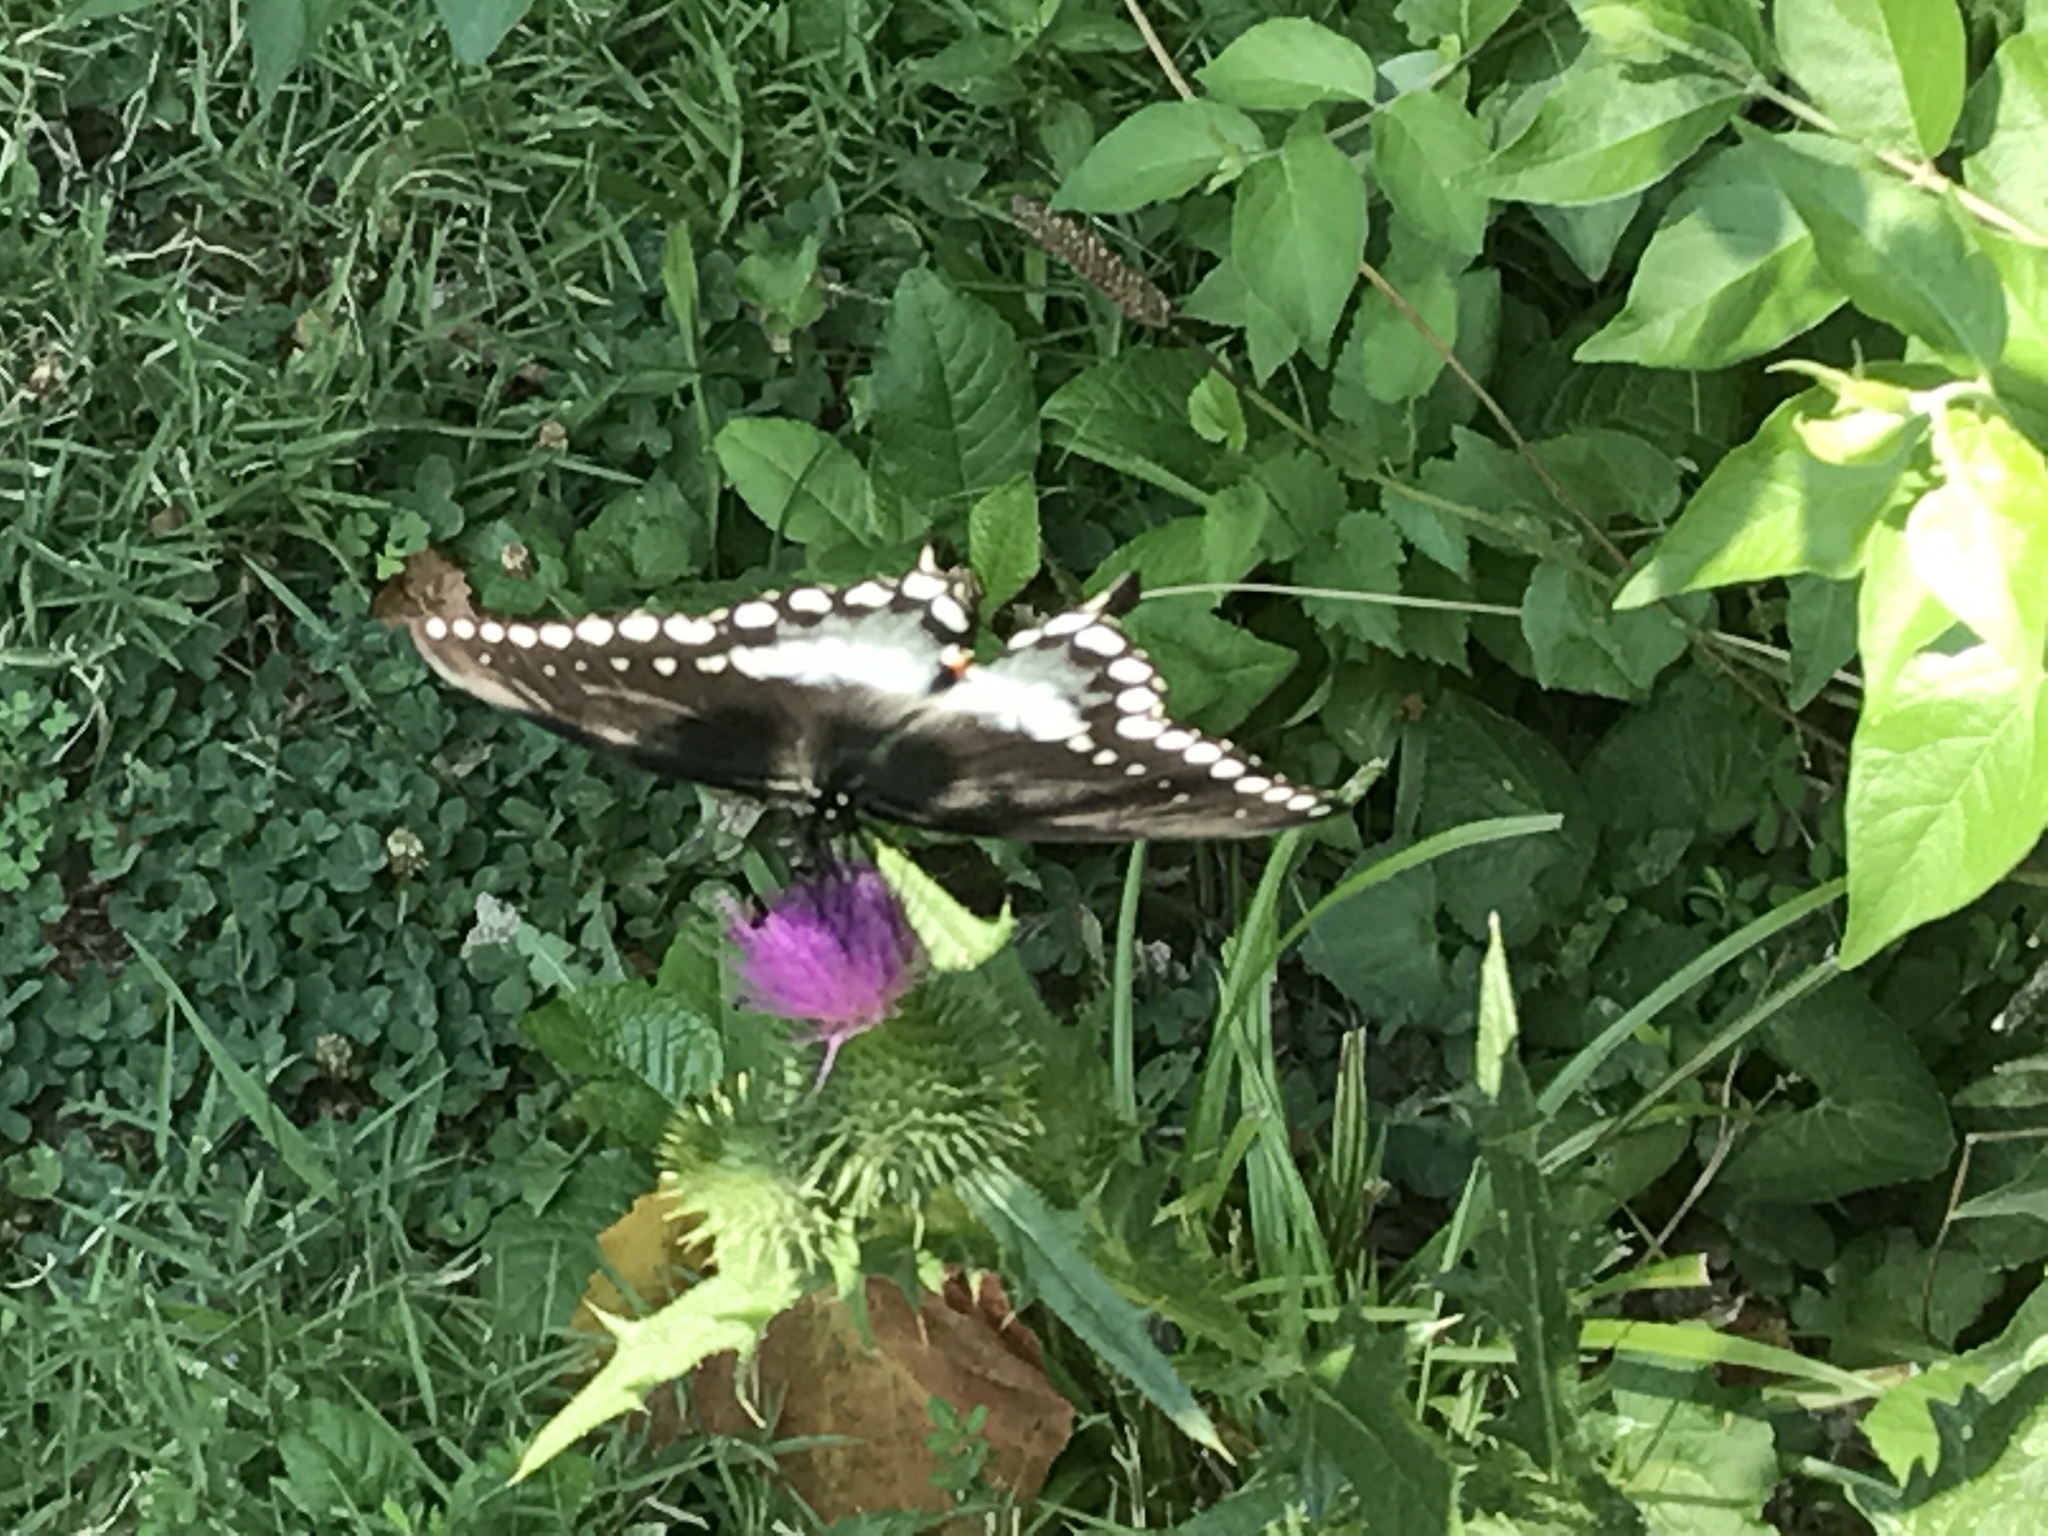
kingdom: Animalia
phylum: Arthropoda
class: Insecta
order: Lepidoptera
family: Papilionidae
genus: Papilio
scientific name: Papilio troilus
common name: Spicebush swallowtail
